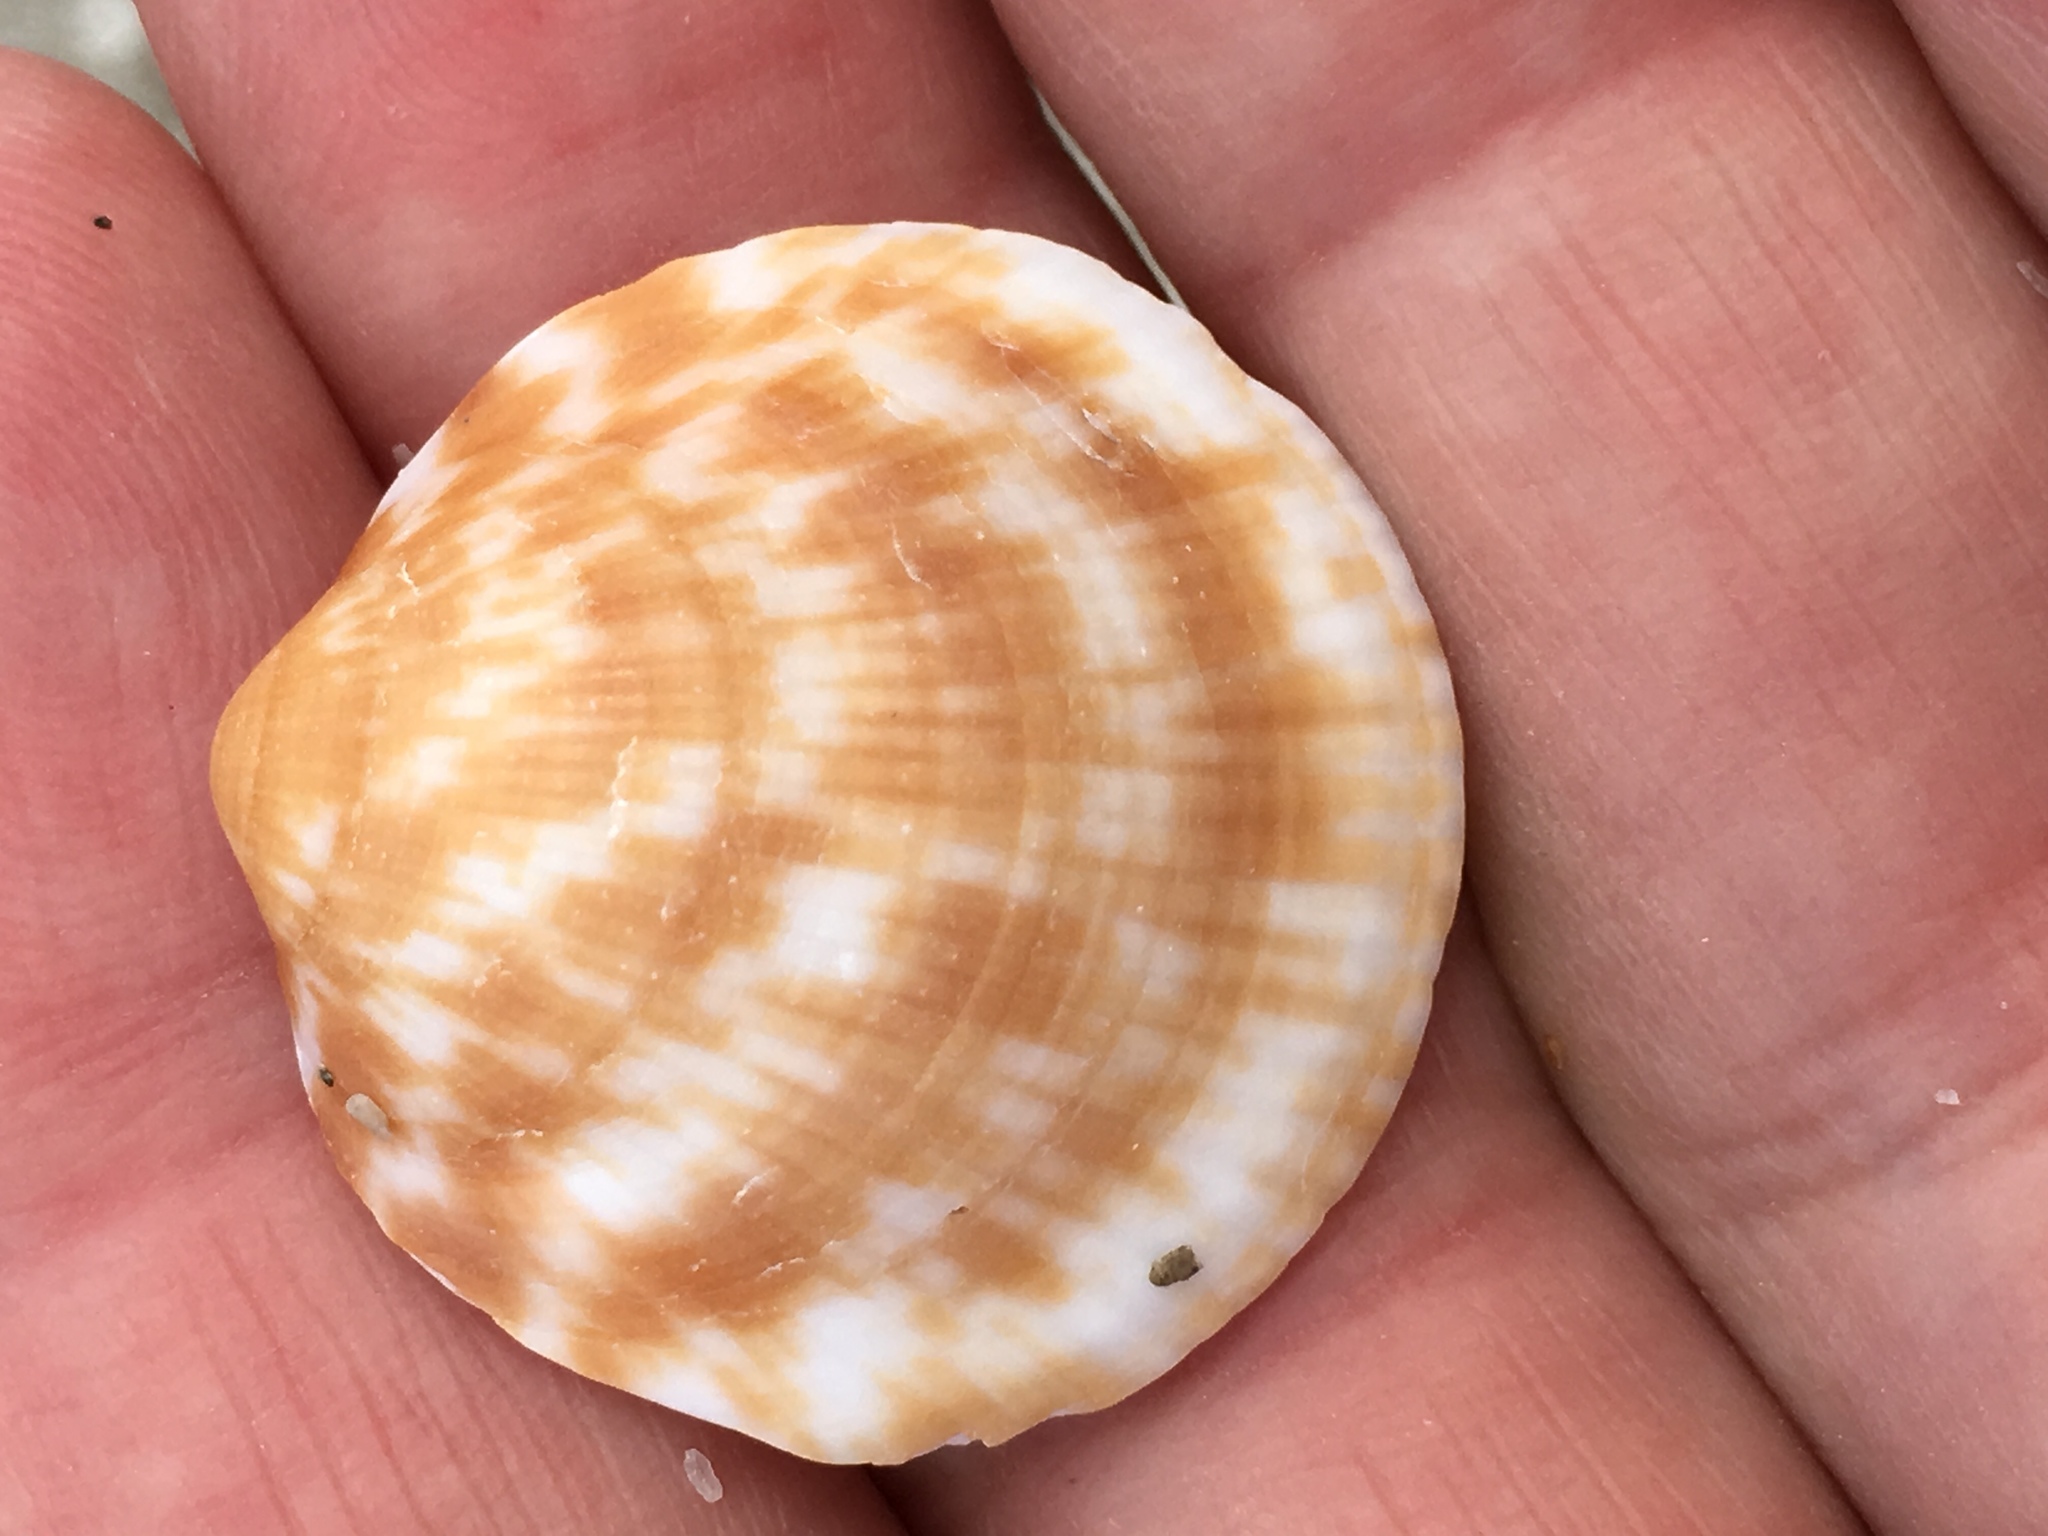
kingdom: Animalia
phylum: Mollusca
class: Bivalvia
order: Arcida
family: Glycymerididae
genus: Glycymeris
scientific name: Glycymeris americana
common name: American bittersweet
